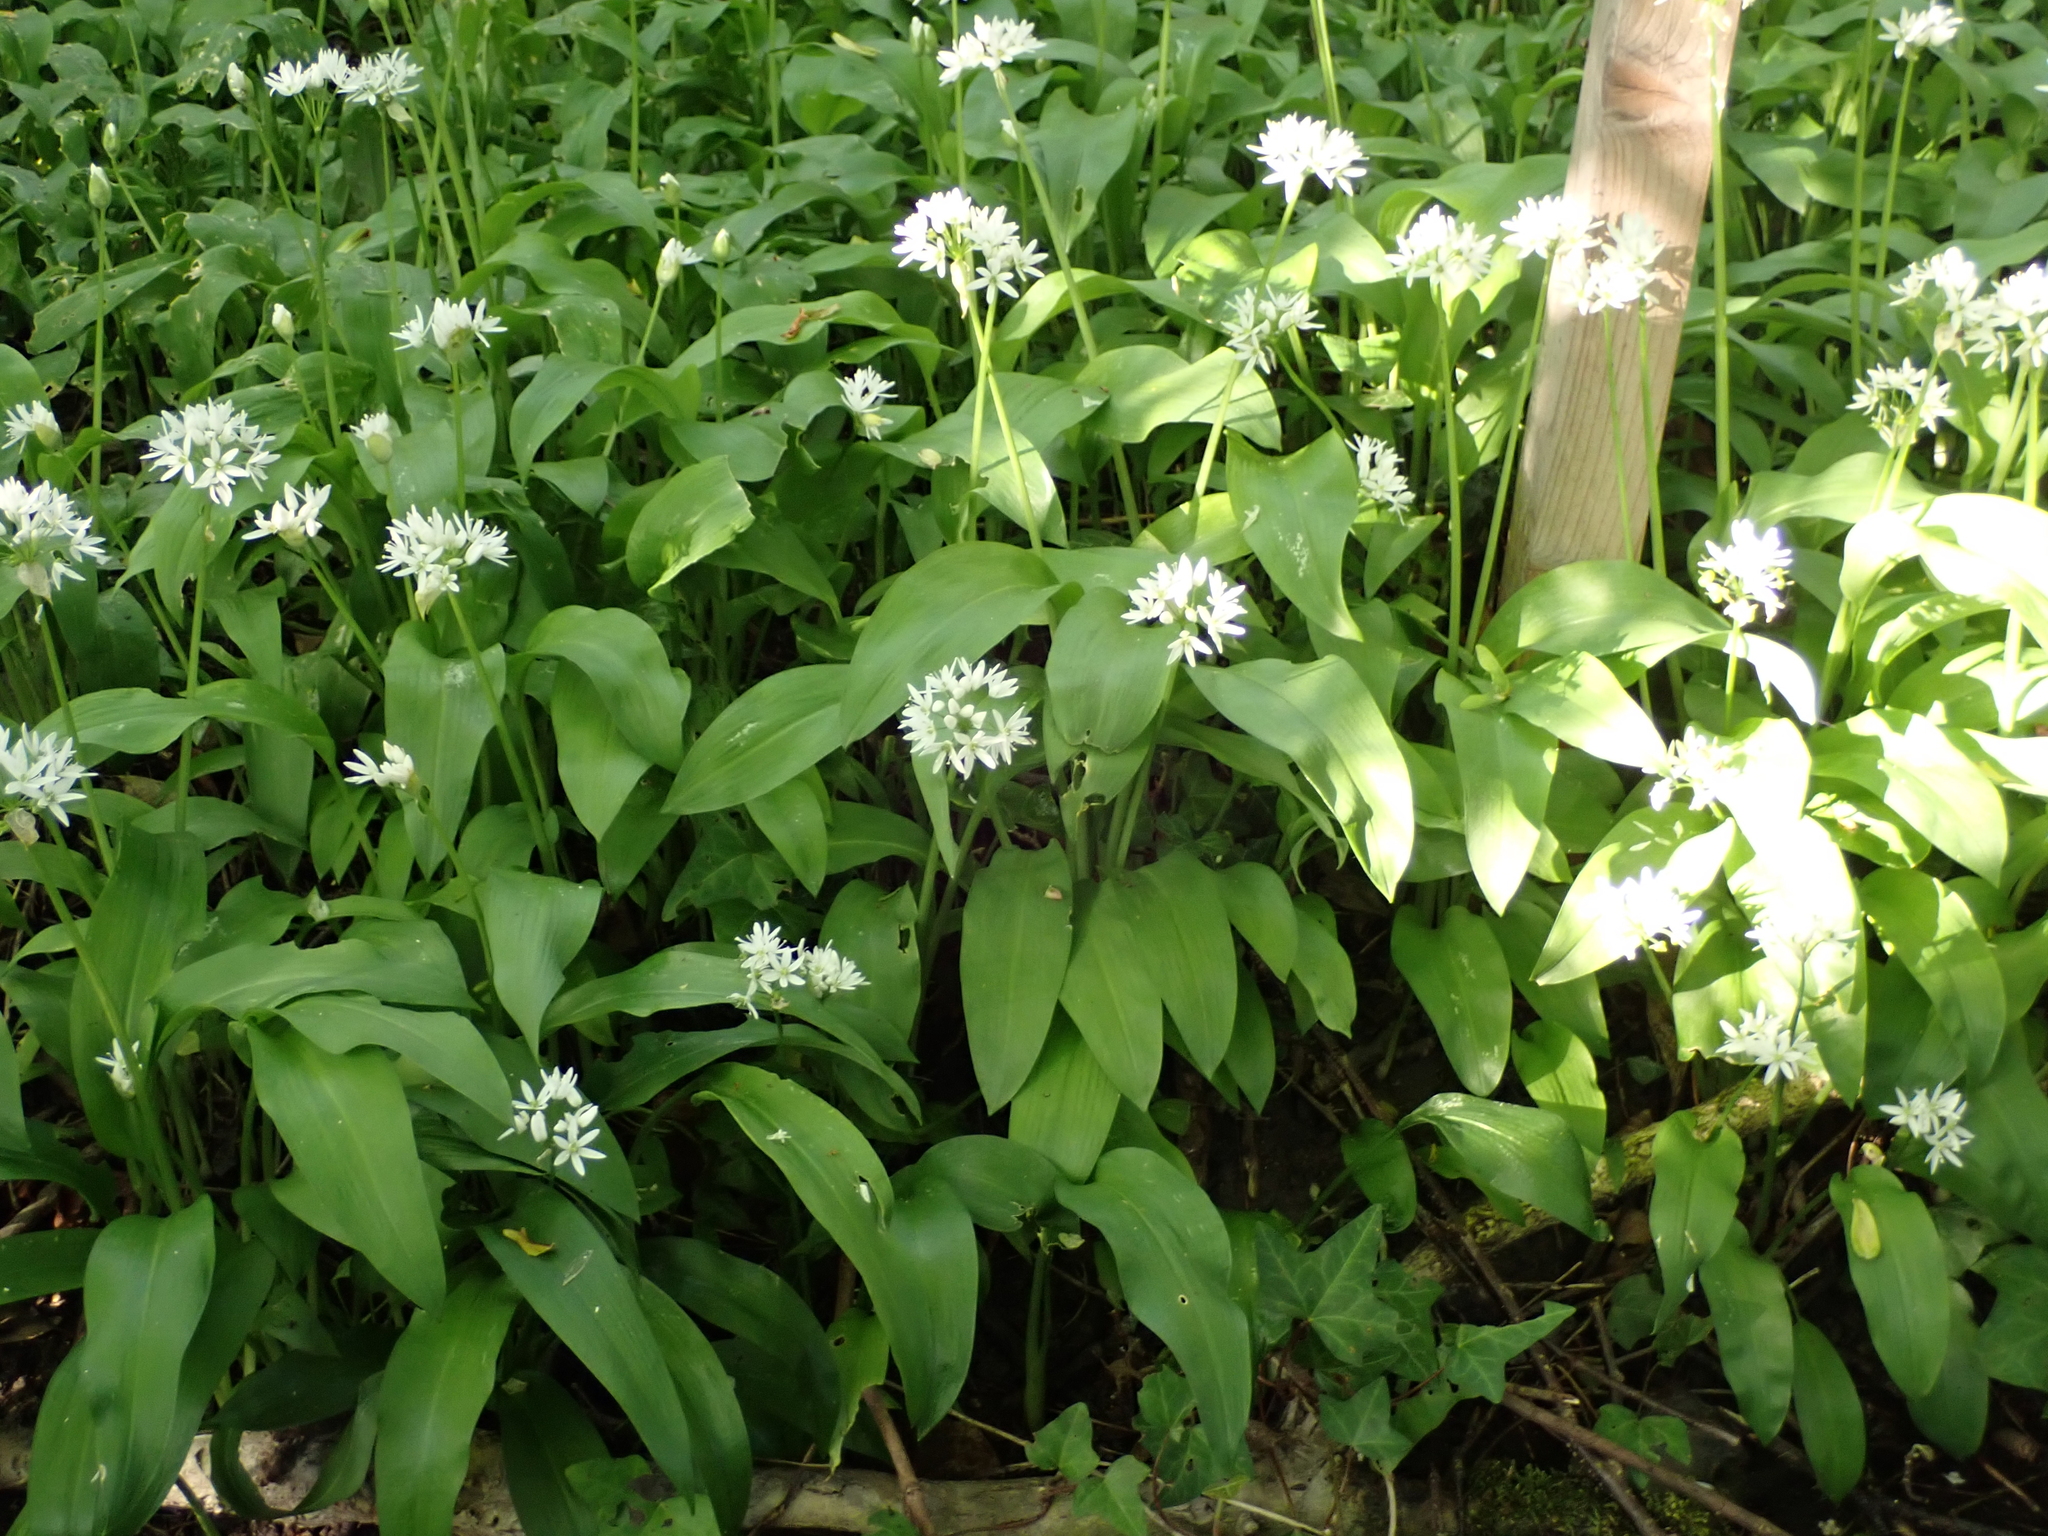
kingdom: Plantae
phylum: Tracheophyta
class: Liliopsida
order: Asparagales
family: Amaryllidaceae
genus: Allium
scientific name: Allium ursinum
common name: Ramsons
